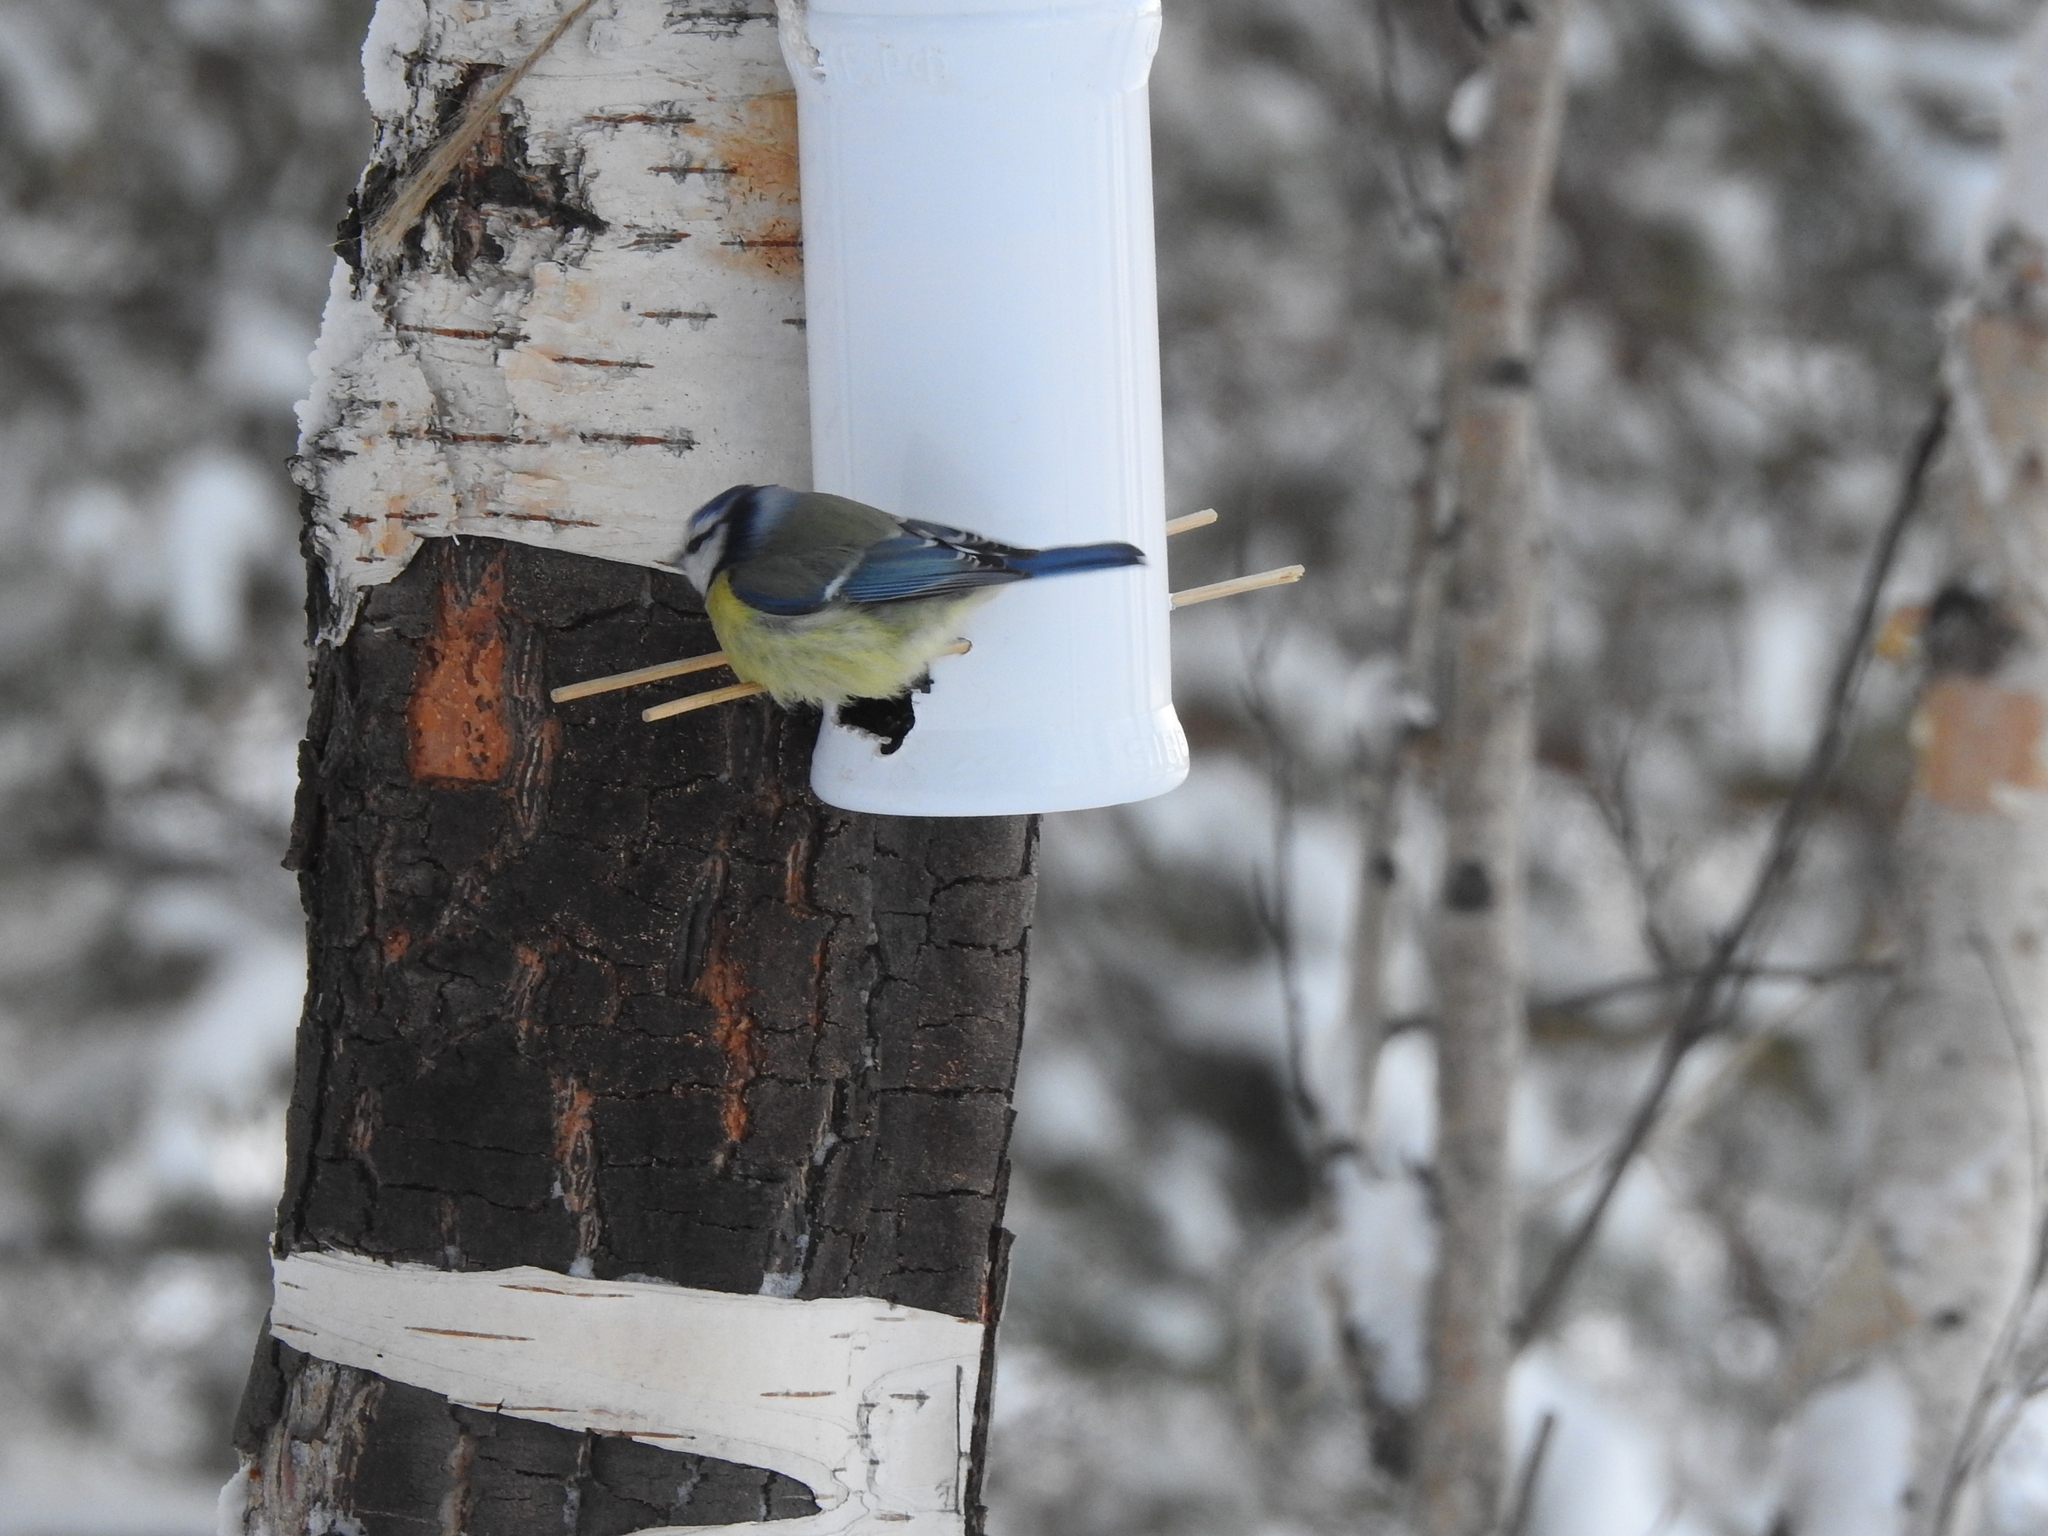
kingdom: Animalia
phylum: Chordata
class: Aves
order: Passeriformes
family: Paridae
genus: Cyanistes
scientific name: Cyanistes caeruleus
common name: Eurasian blue tit
